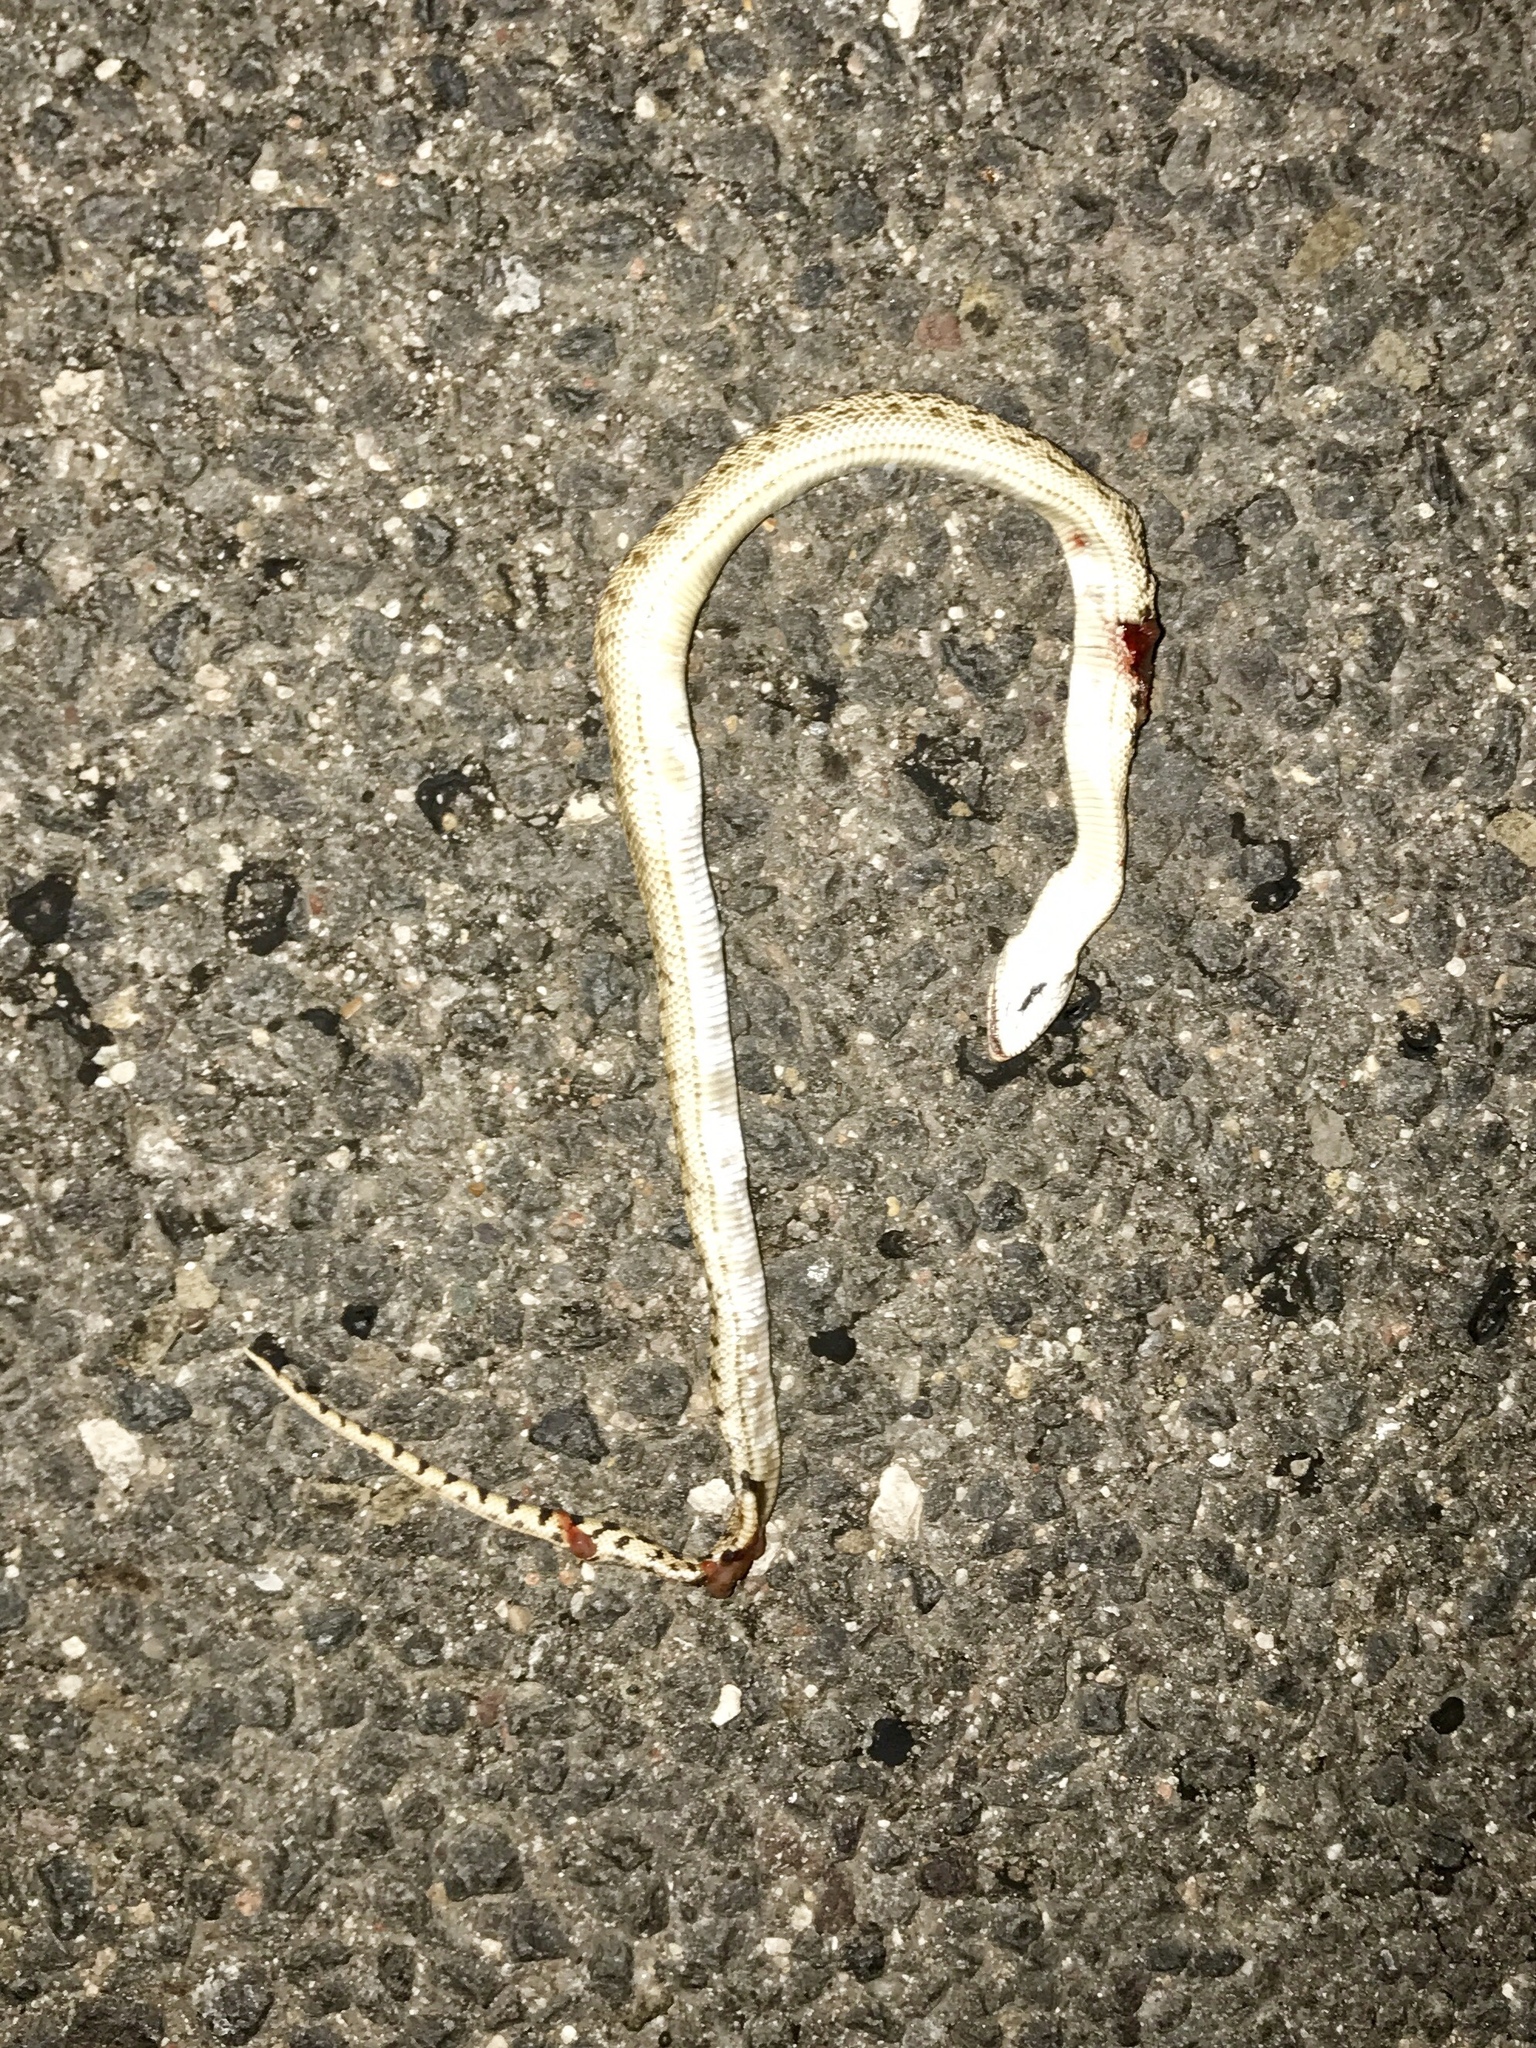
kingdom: Animalia
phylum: Chordata
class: Squamata
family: Colubridae
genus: Pituophis
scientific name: Pituophis catenifer
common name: Gopher snake
